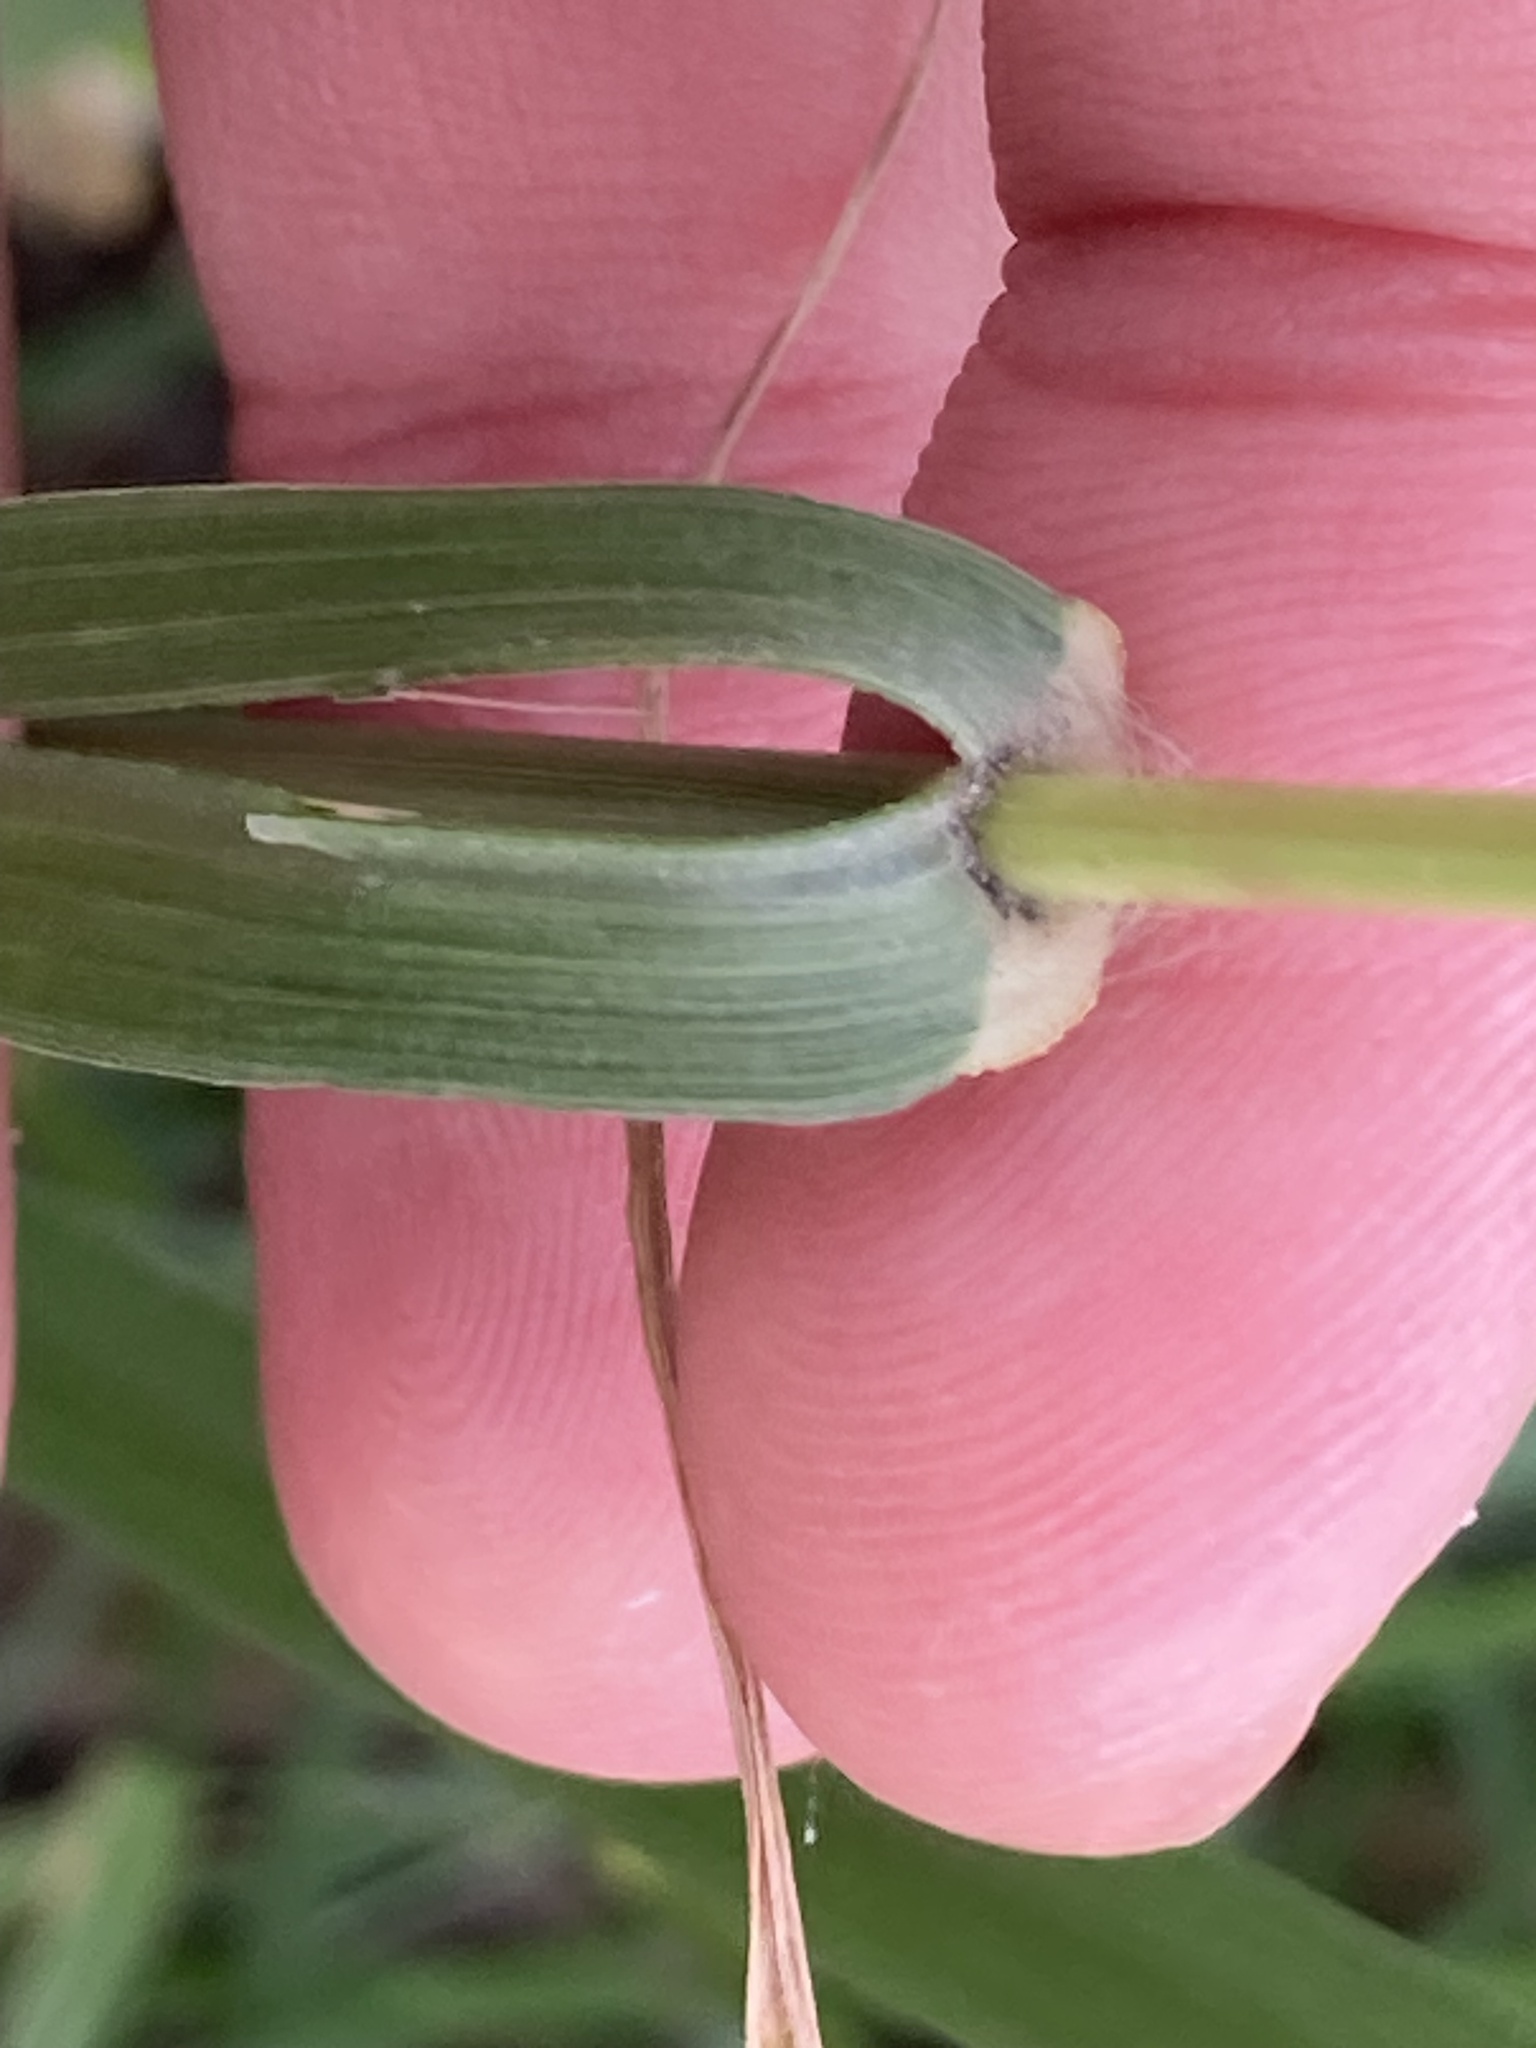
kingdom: Plantae
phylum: Tracheophyta
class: Liliopsida
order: Poales
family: Poaceae
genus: Chloris
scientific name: Chloris gayana
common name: Rhodes grass
